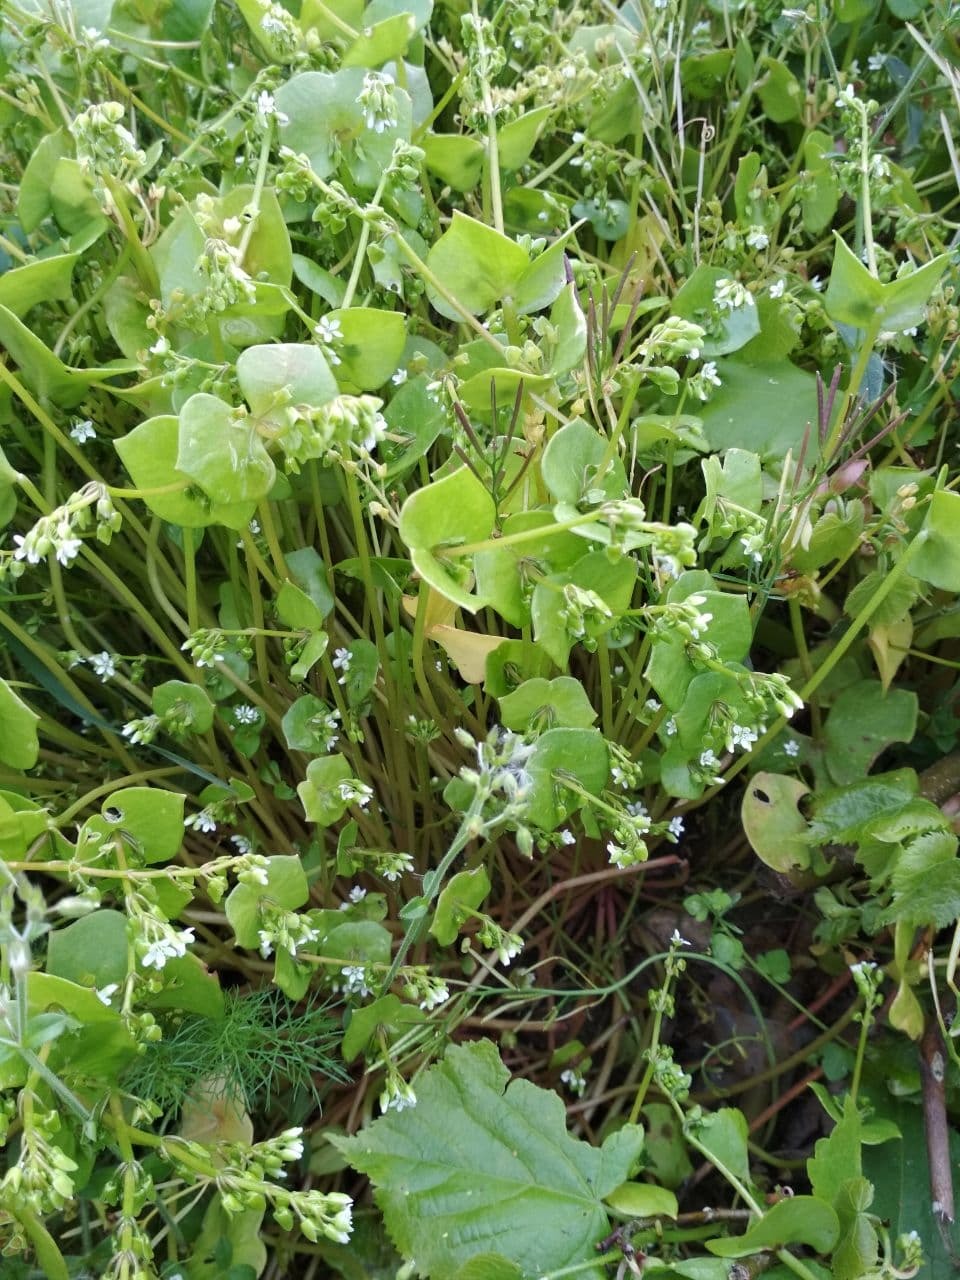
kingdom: Plantae
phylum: Tracheophyta
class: Magnoliopsida
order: Caryophyllales
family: Montiaceae
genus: Claytonia
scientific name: Claytonia perfoliata
